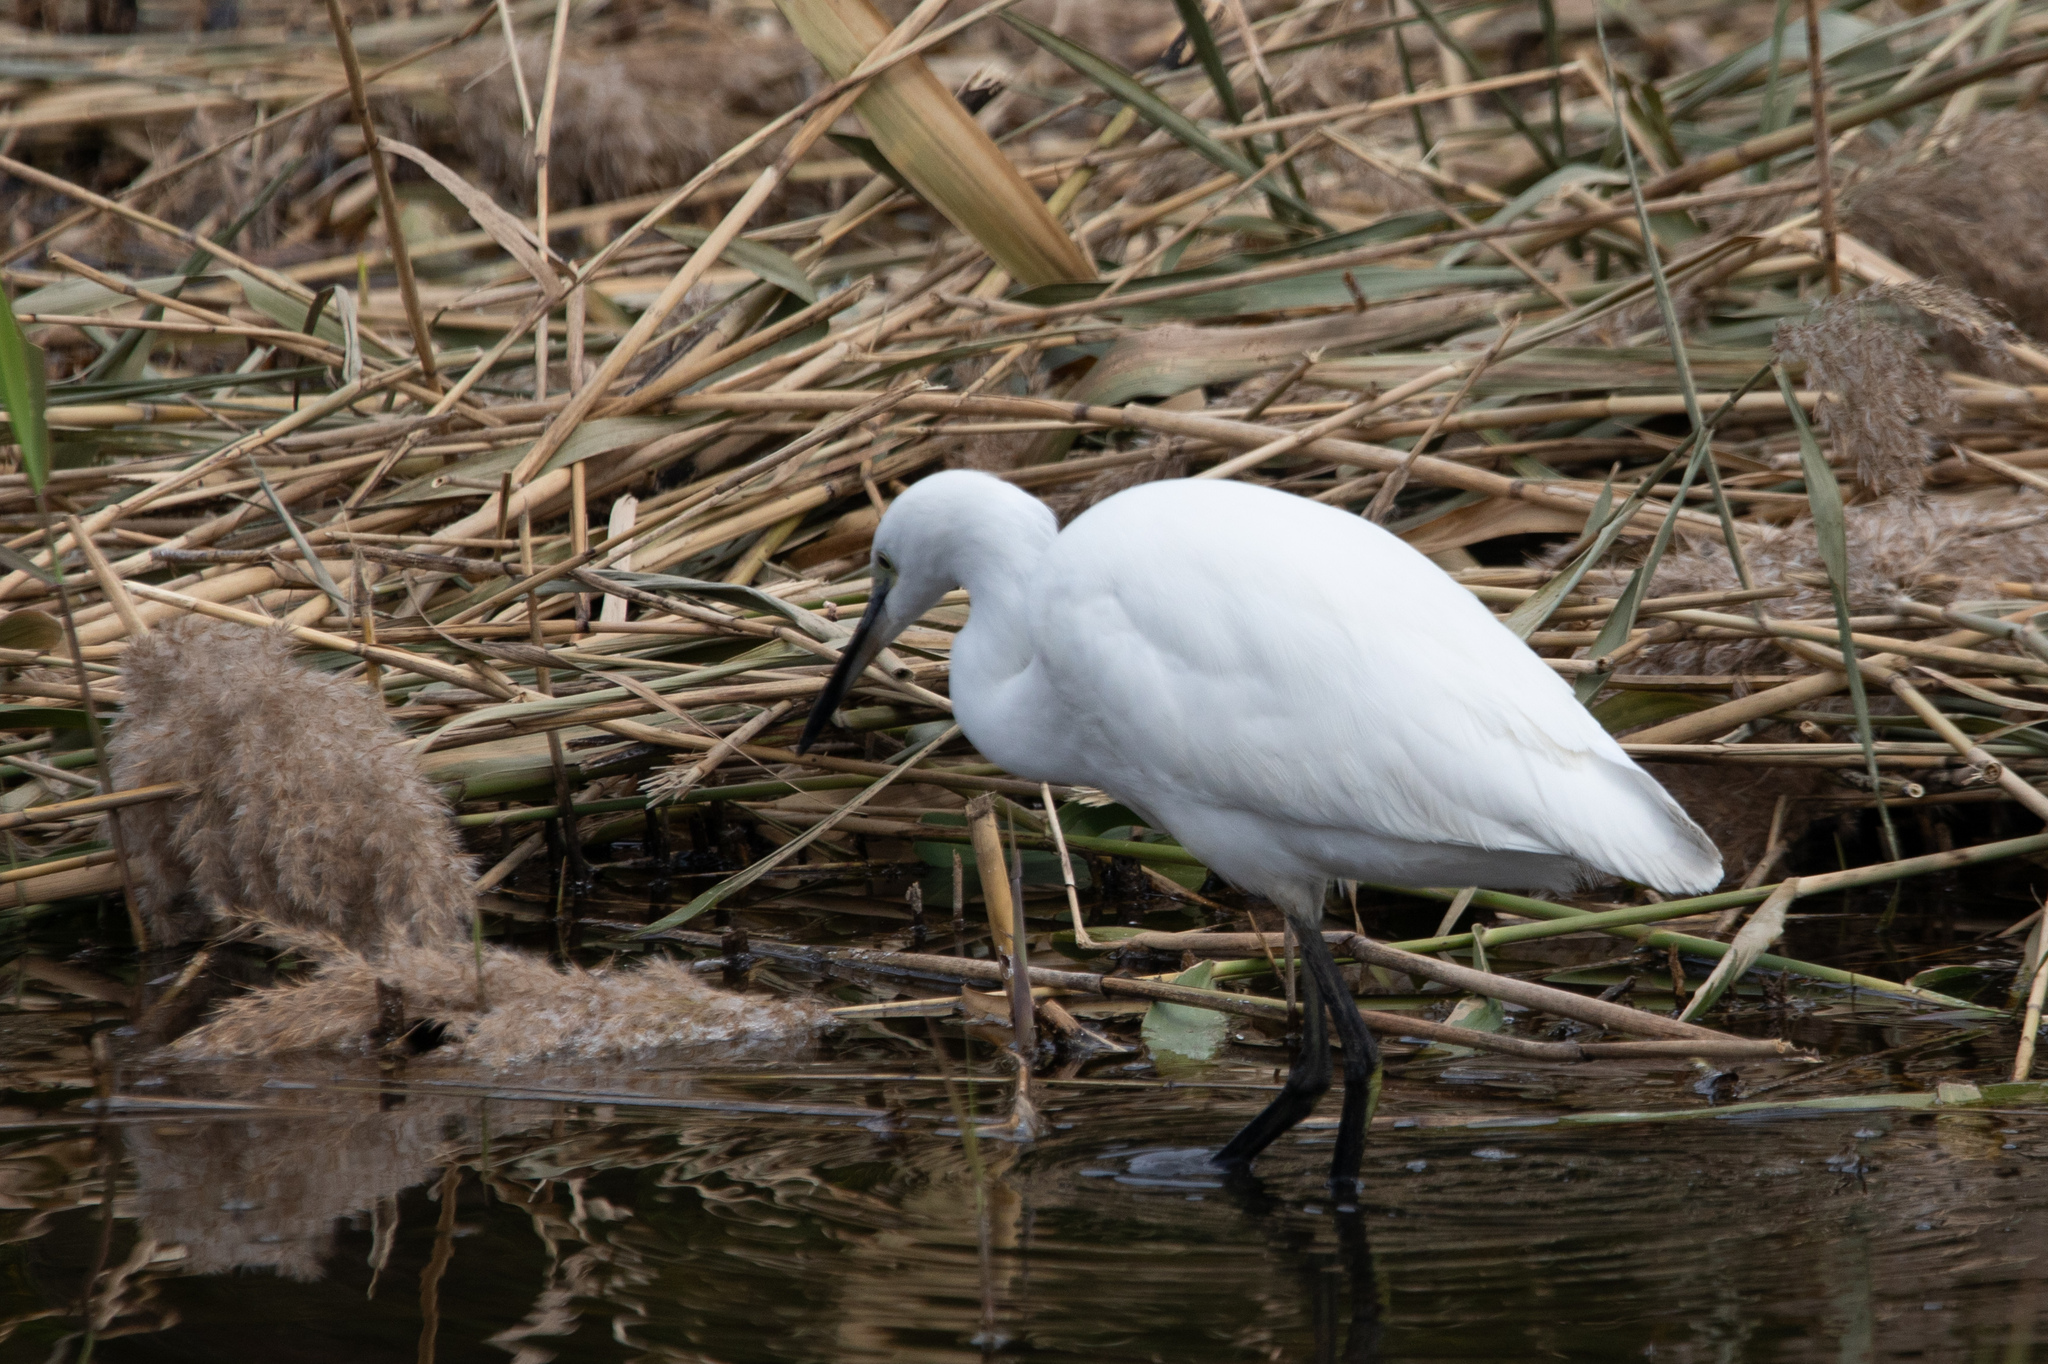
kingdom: Animalia
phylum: Chordata
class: Aves
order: Pelecaniformes
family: Ardeidae
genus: Egretta
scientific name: Egretta garzetta
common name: Little egret
